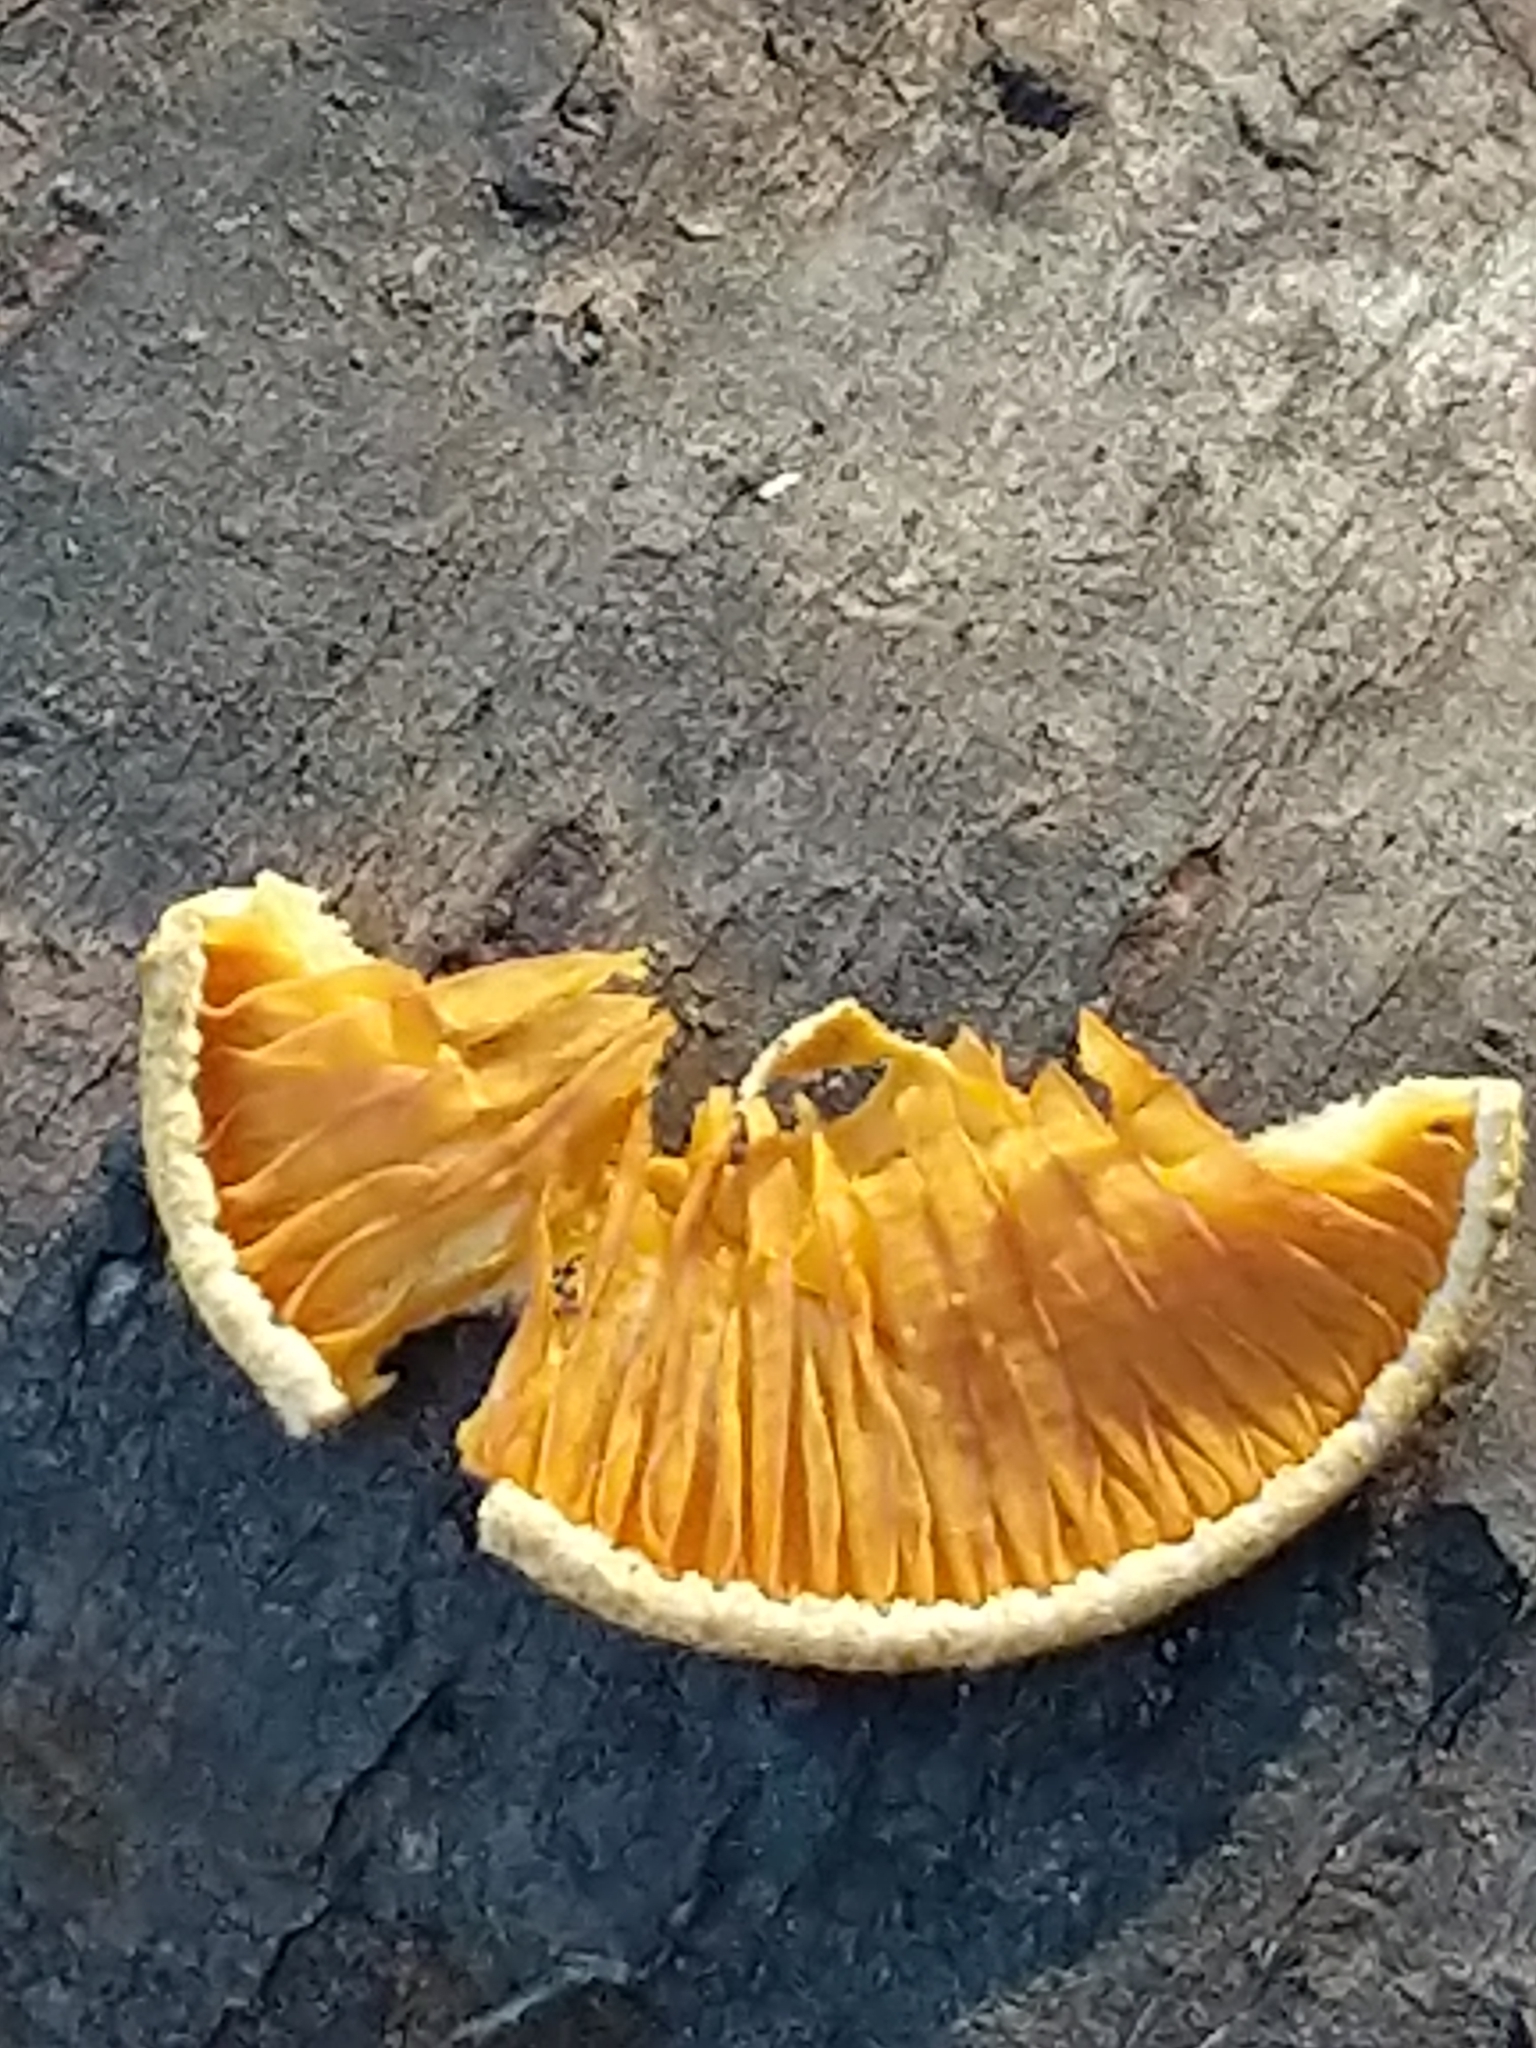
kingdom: Fungi
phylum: Basidiomycota
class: Agaricomycetes
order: Agaricales
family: Phyllotopsidaceae
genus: Phyllotopsis
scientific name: Phyllotopsis nidulans
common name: Orange mock oyster
